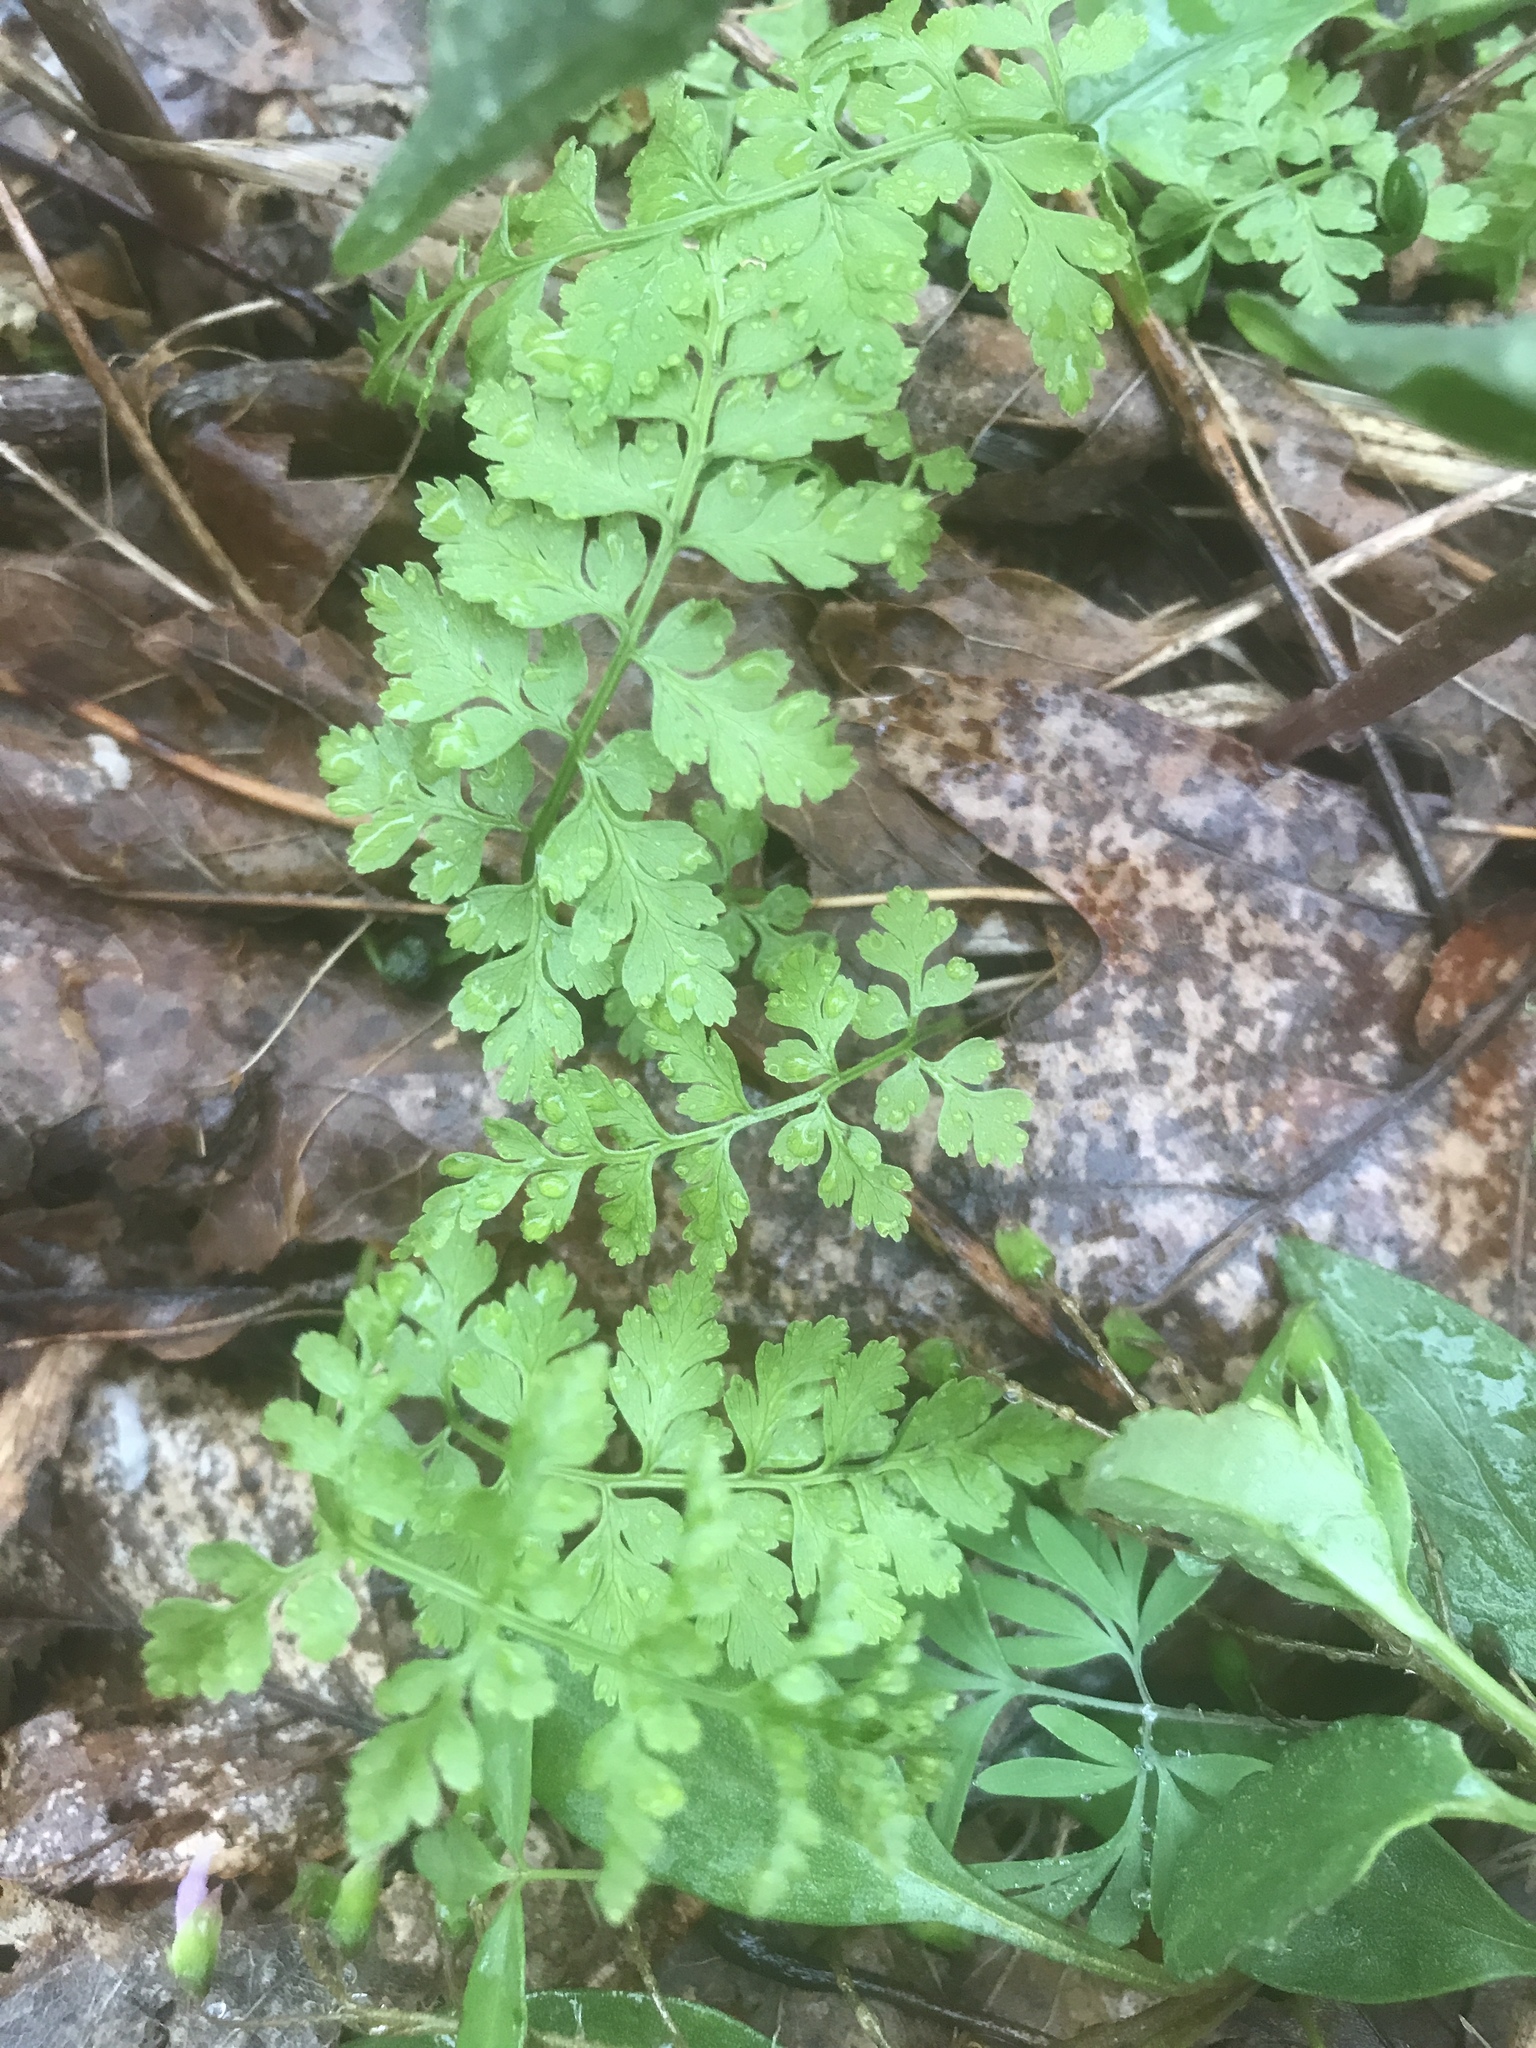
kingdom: Plantae
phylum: Tracheophyta
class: Polypodiopsida
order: Polypodiales
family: Cystopteridaceae
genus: Cystopteris
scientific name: Cystopteris protrusa
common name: Lowland brittle fern
